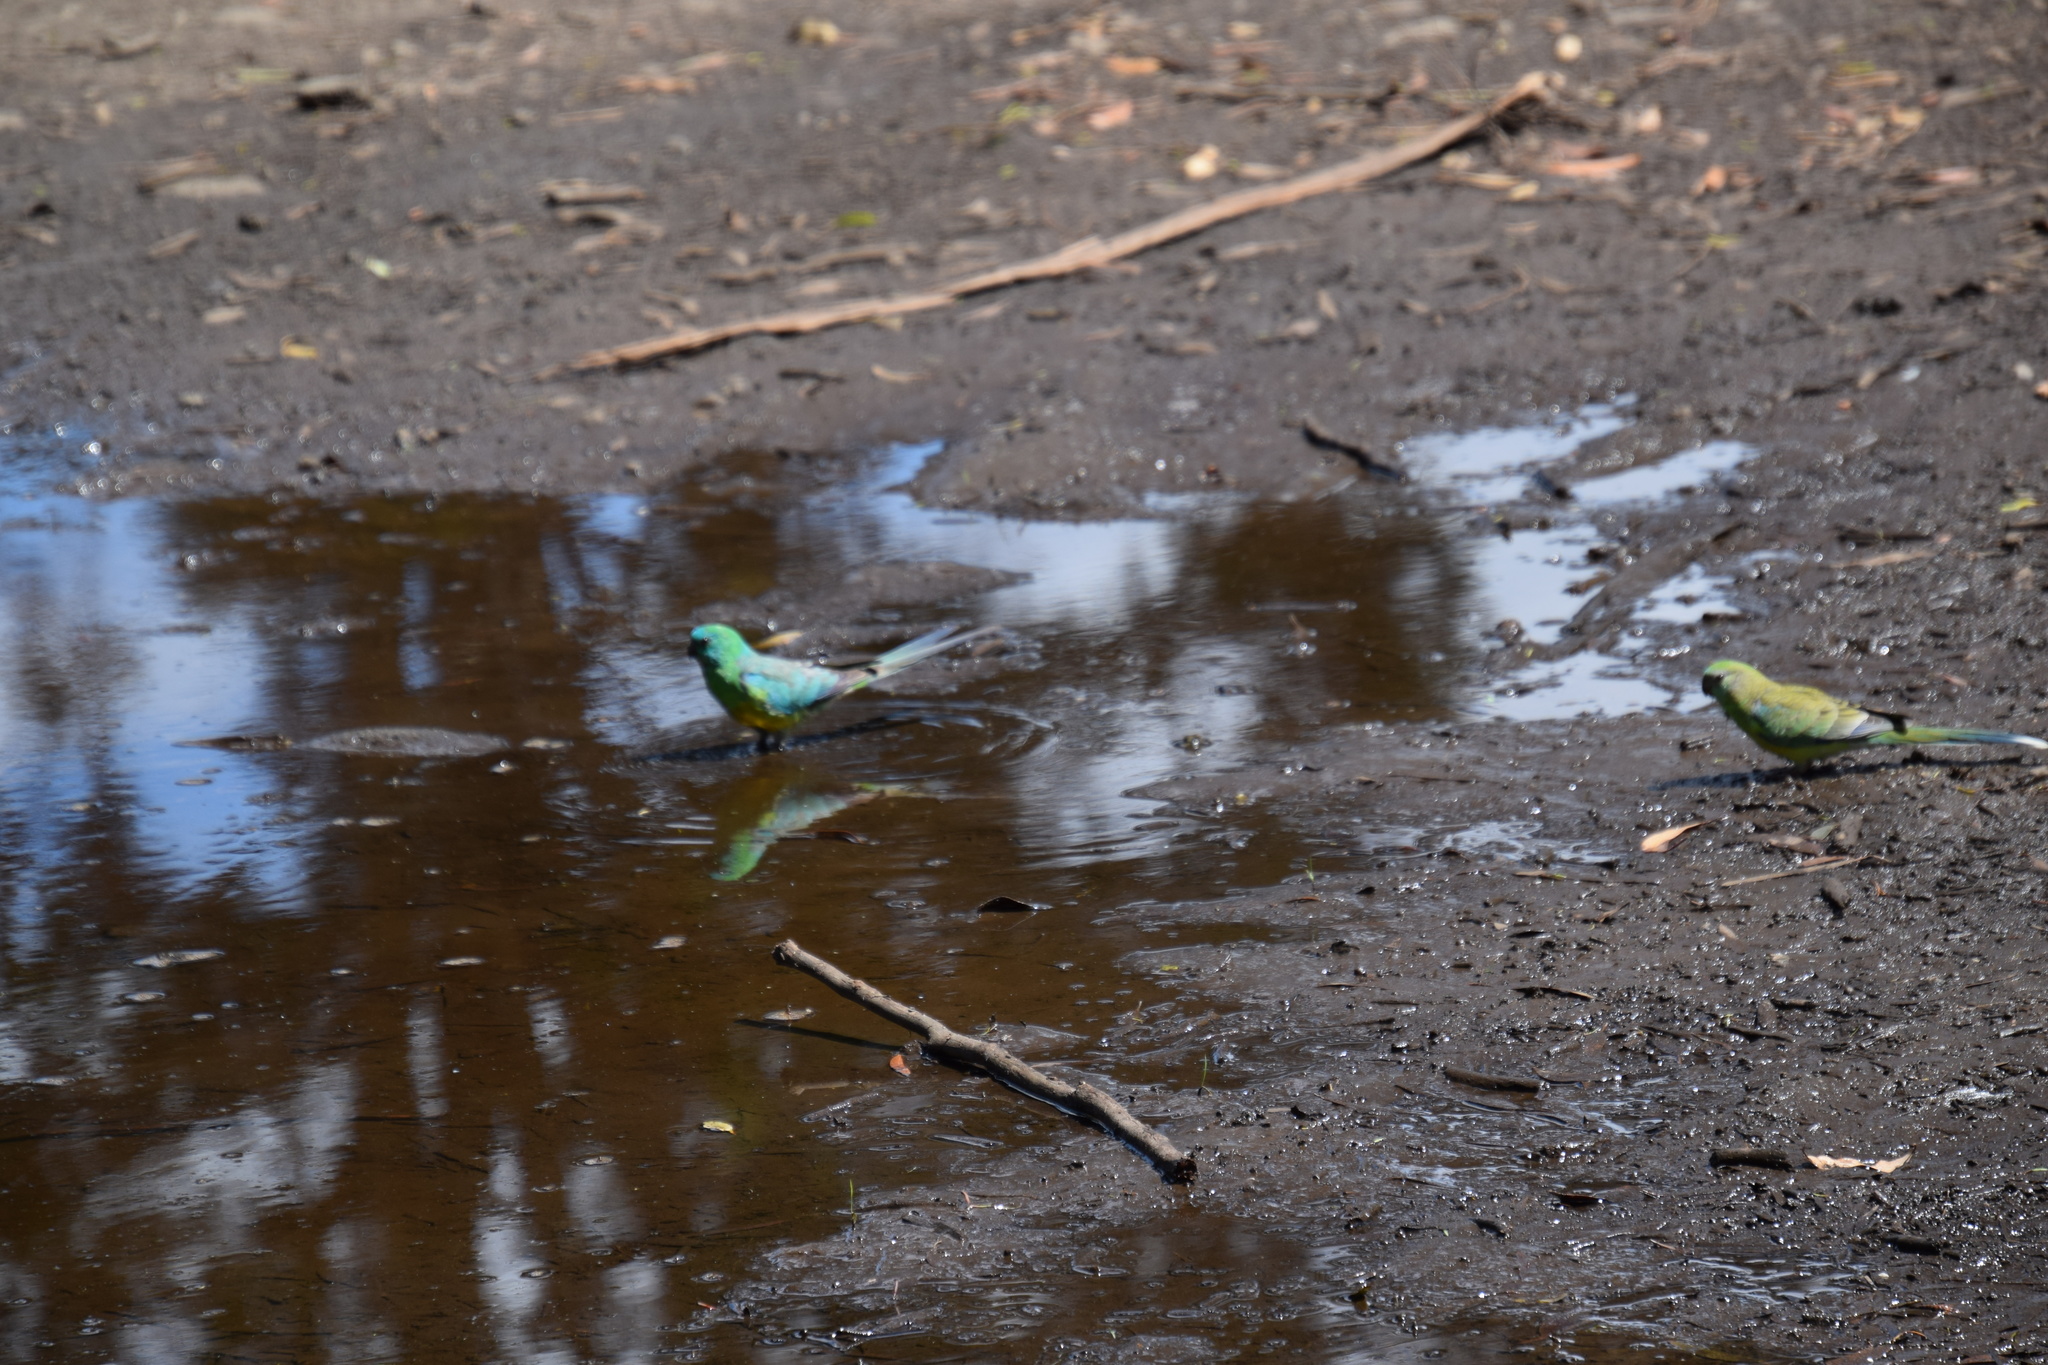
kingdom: Animalia
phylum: Chordata
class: Aves
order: Psittaciformes
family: Psittacidae
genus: Psephotus
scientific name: Psephotus haematonotus
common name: Red-rumped parrot
